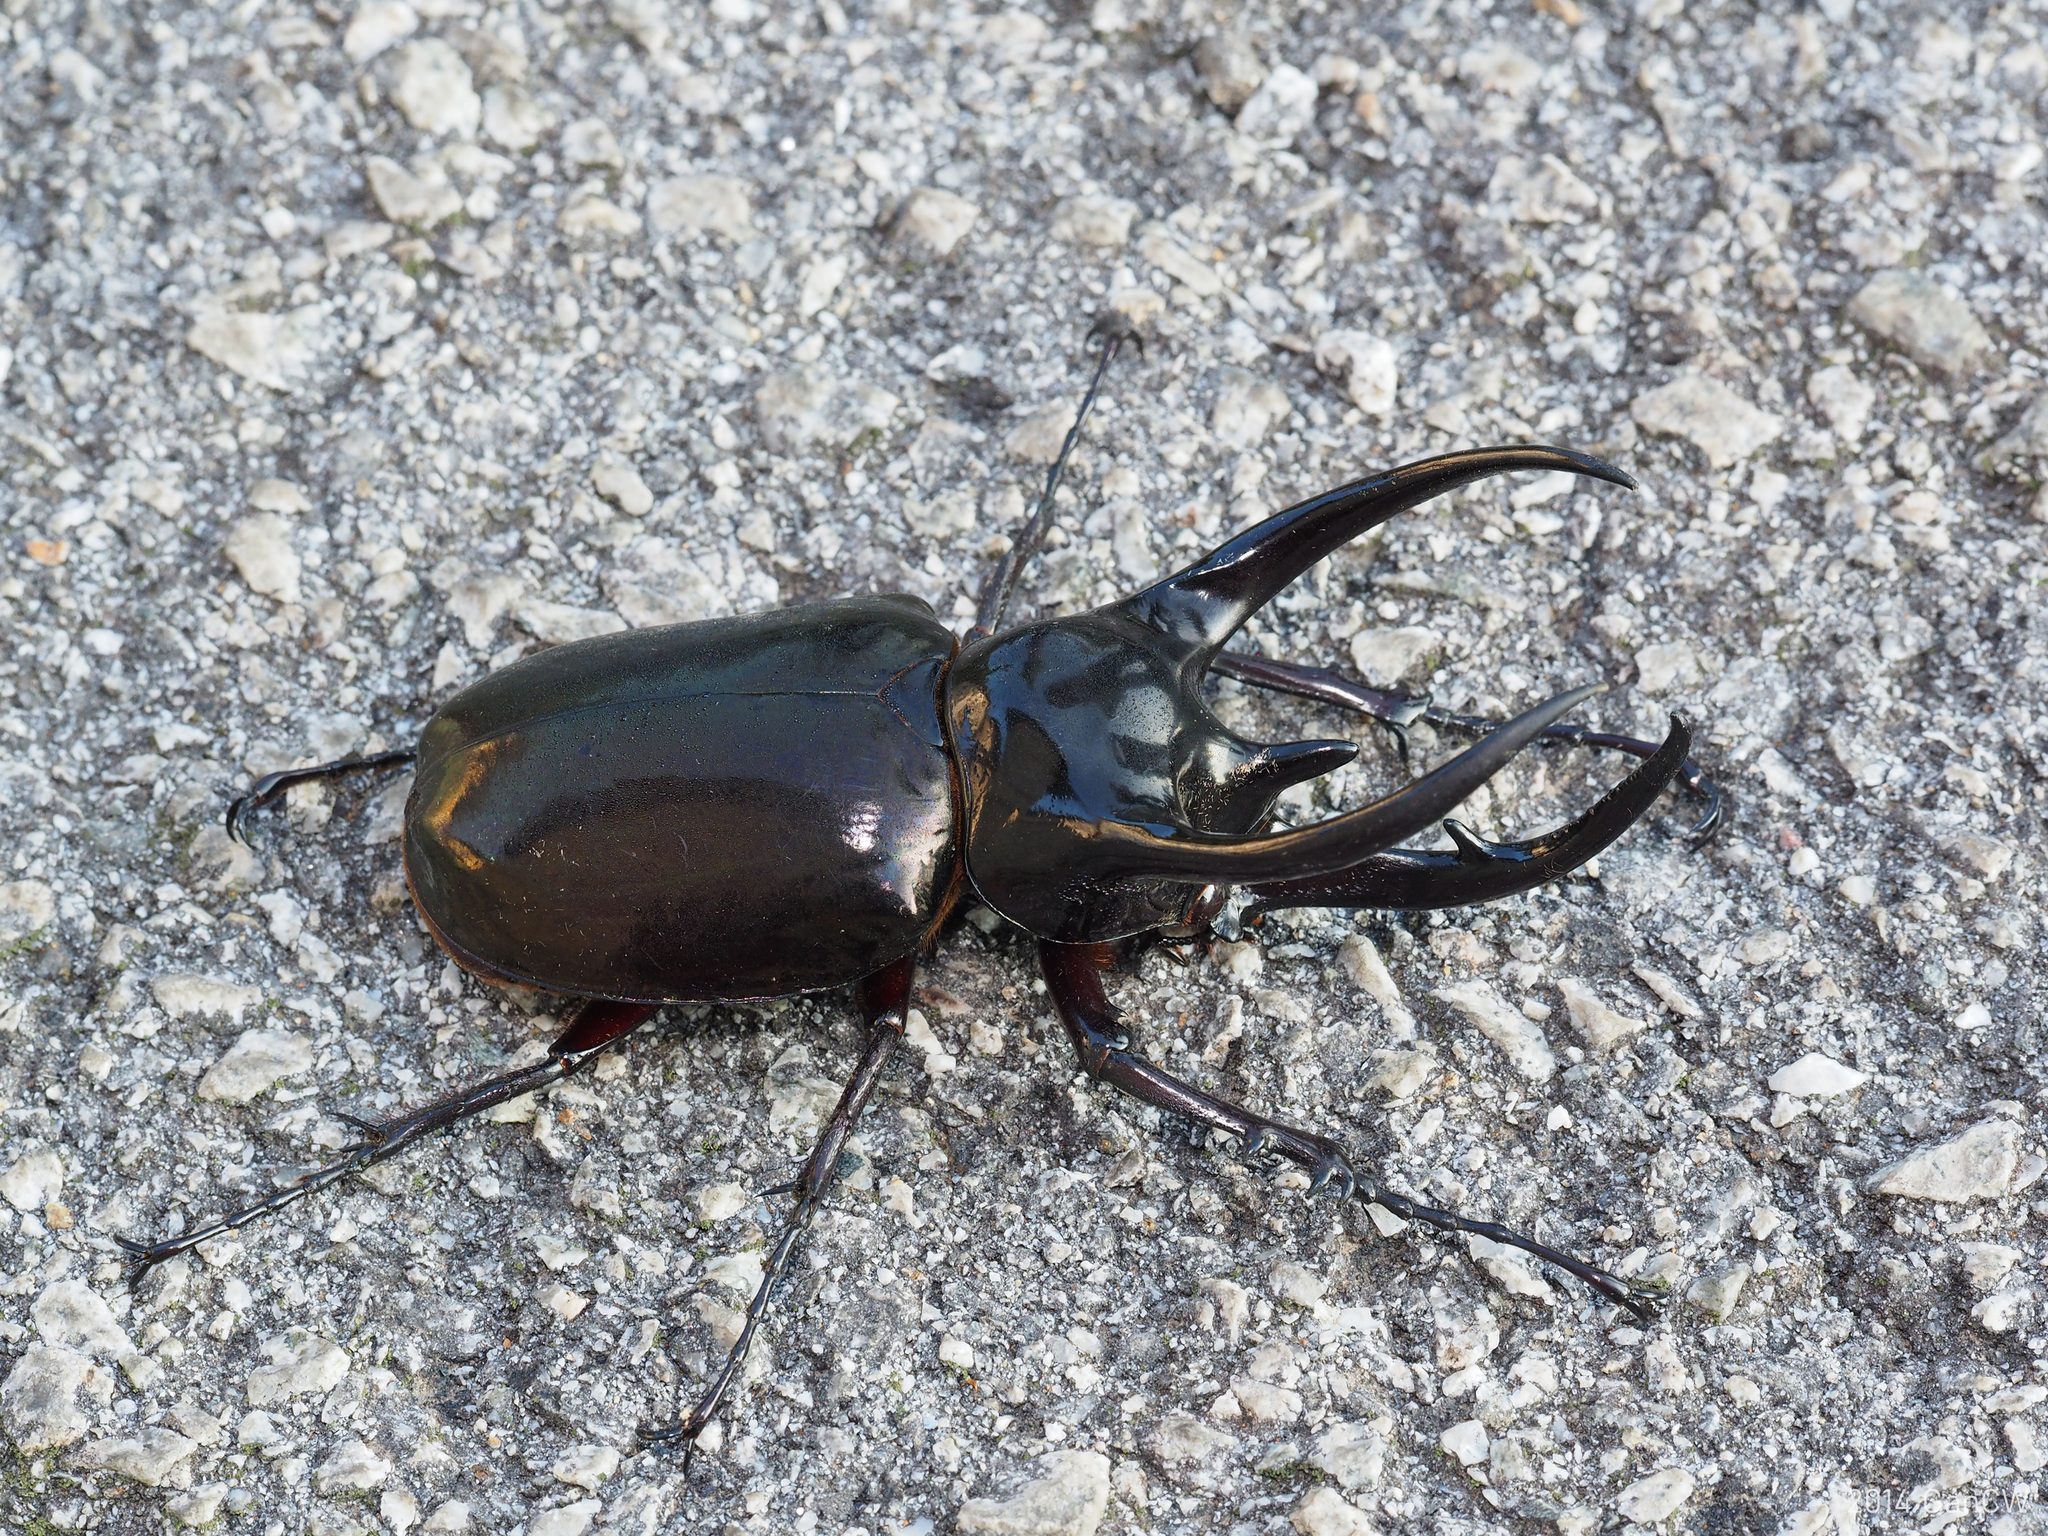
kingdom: Animalia
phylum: Arthropoda
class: Insecta
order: Coleoptera
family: Scarabaeidae
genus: Chalcosoma
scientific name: Chalcosoma chiron
